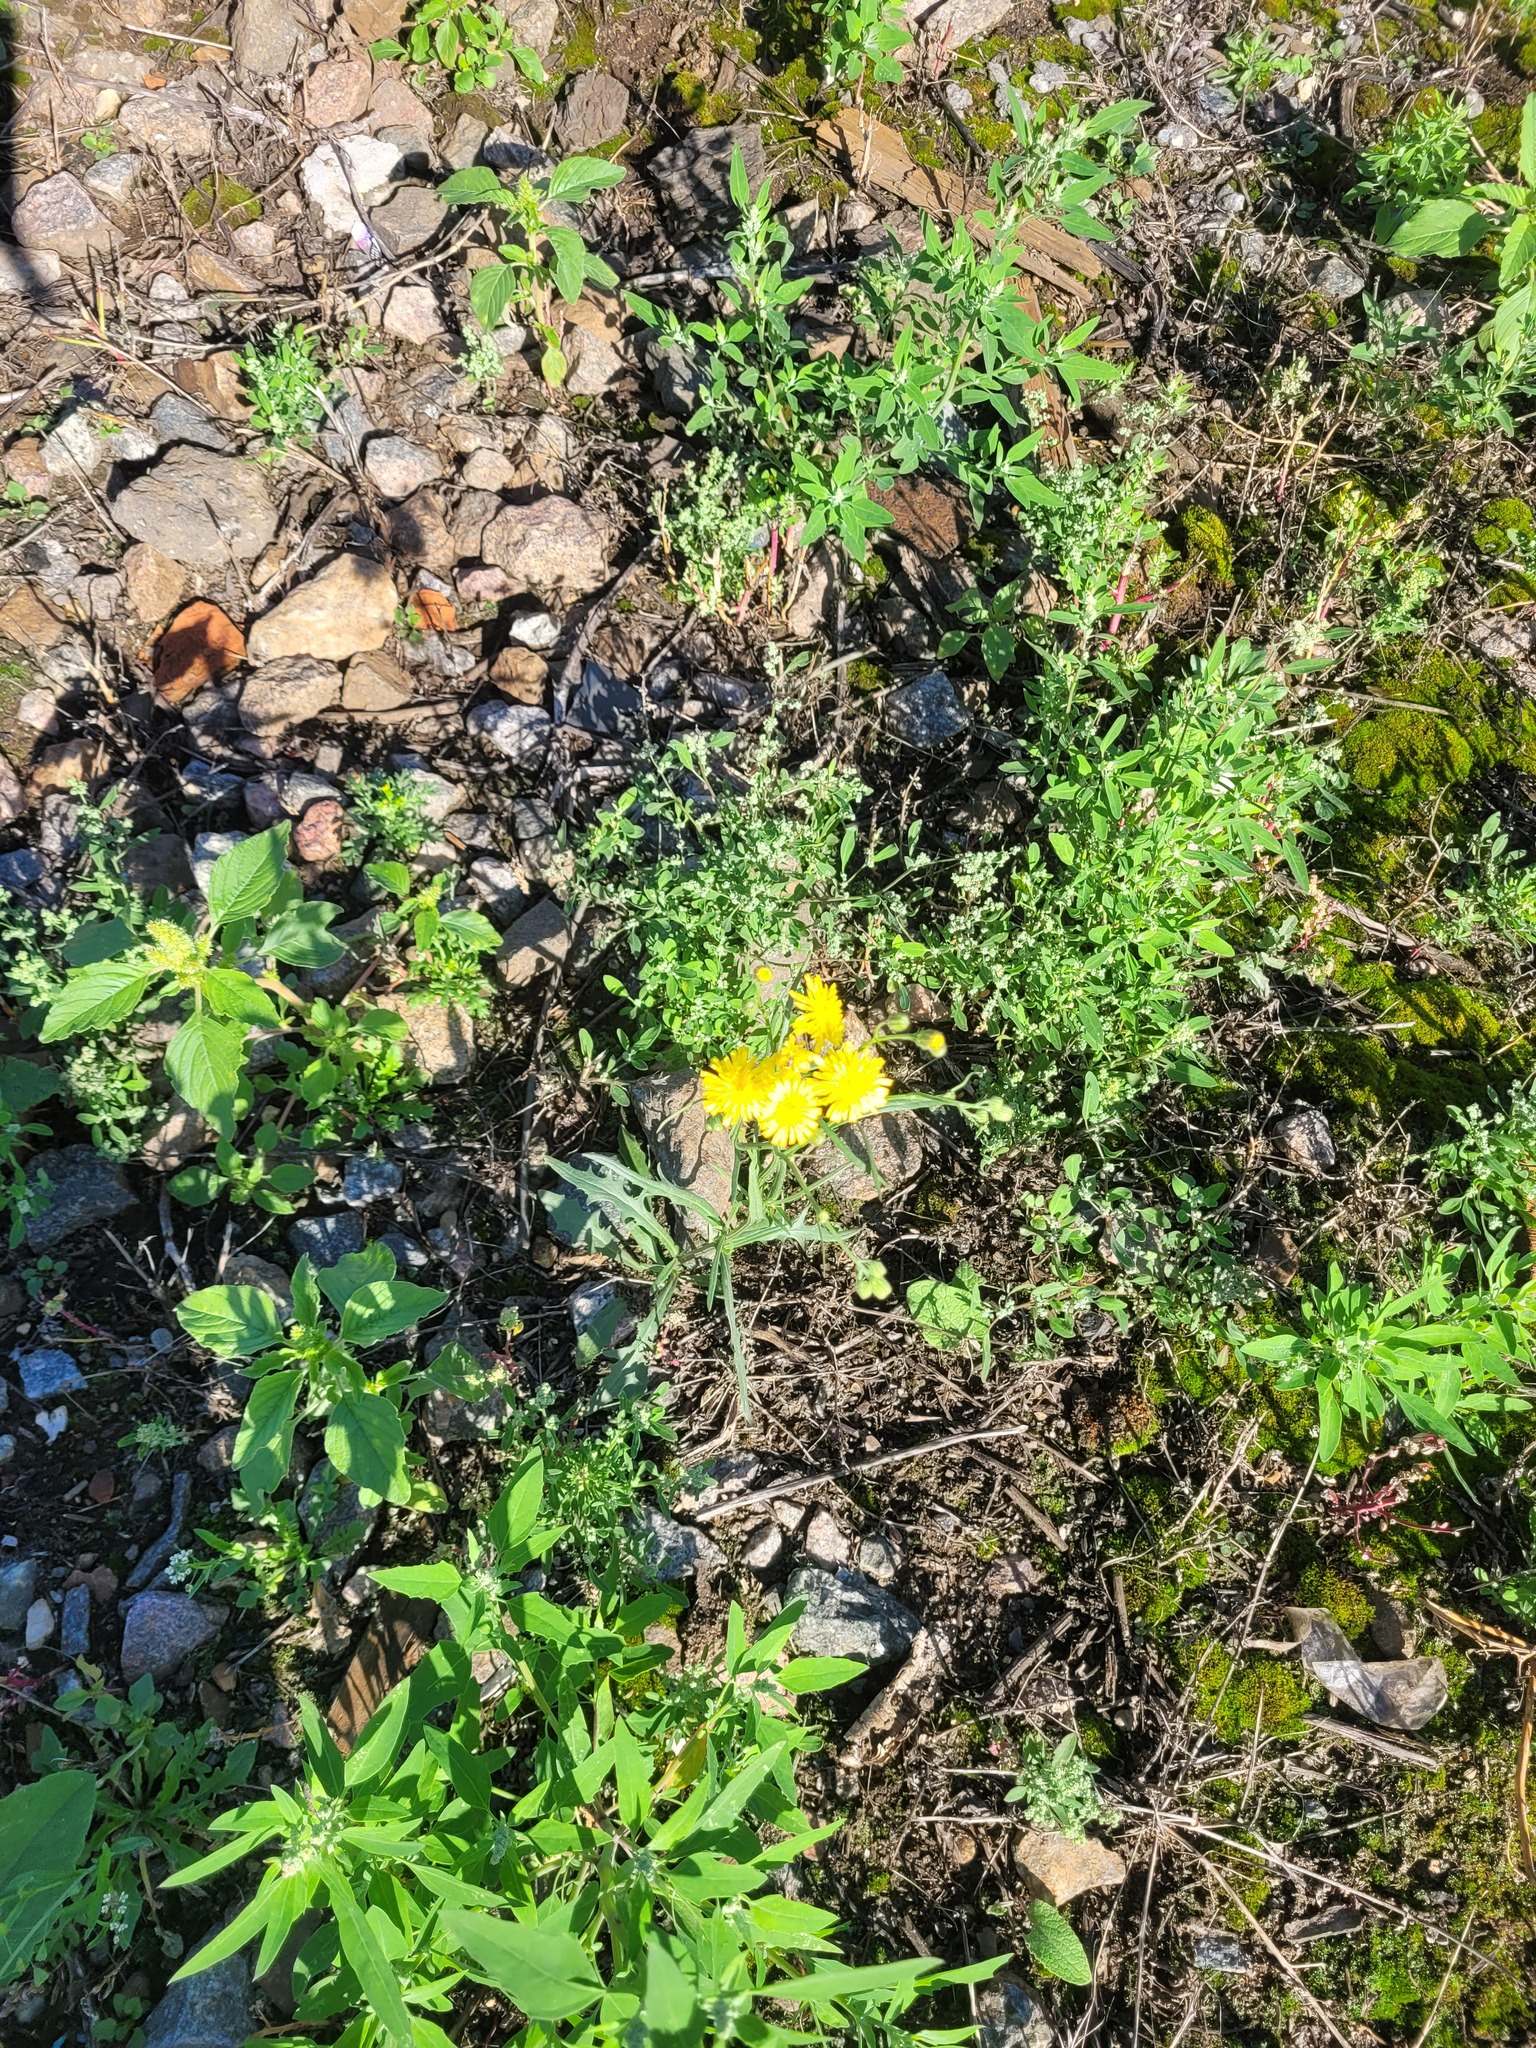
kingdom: Plantae
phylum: Tracheophyta
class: Magnoliopsida
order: Asterales
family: Asteraceae
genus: Crepis
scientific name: Crepis tectorum
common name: Narrow-leaved hawk's-beard
